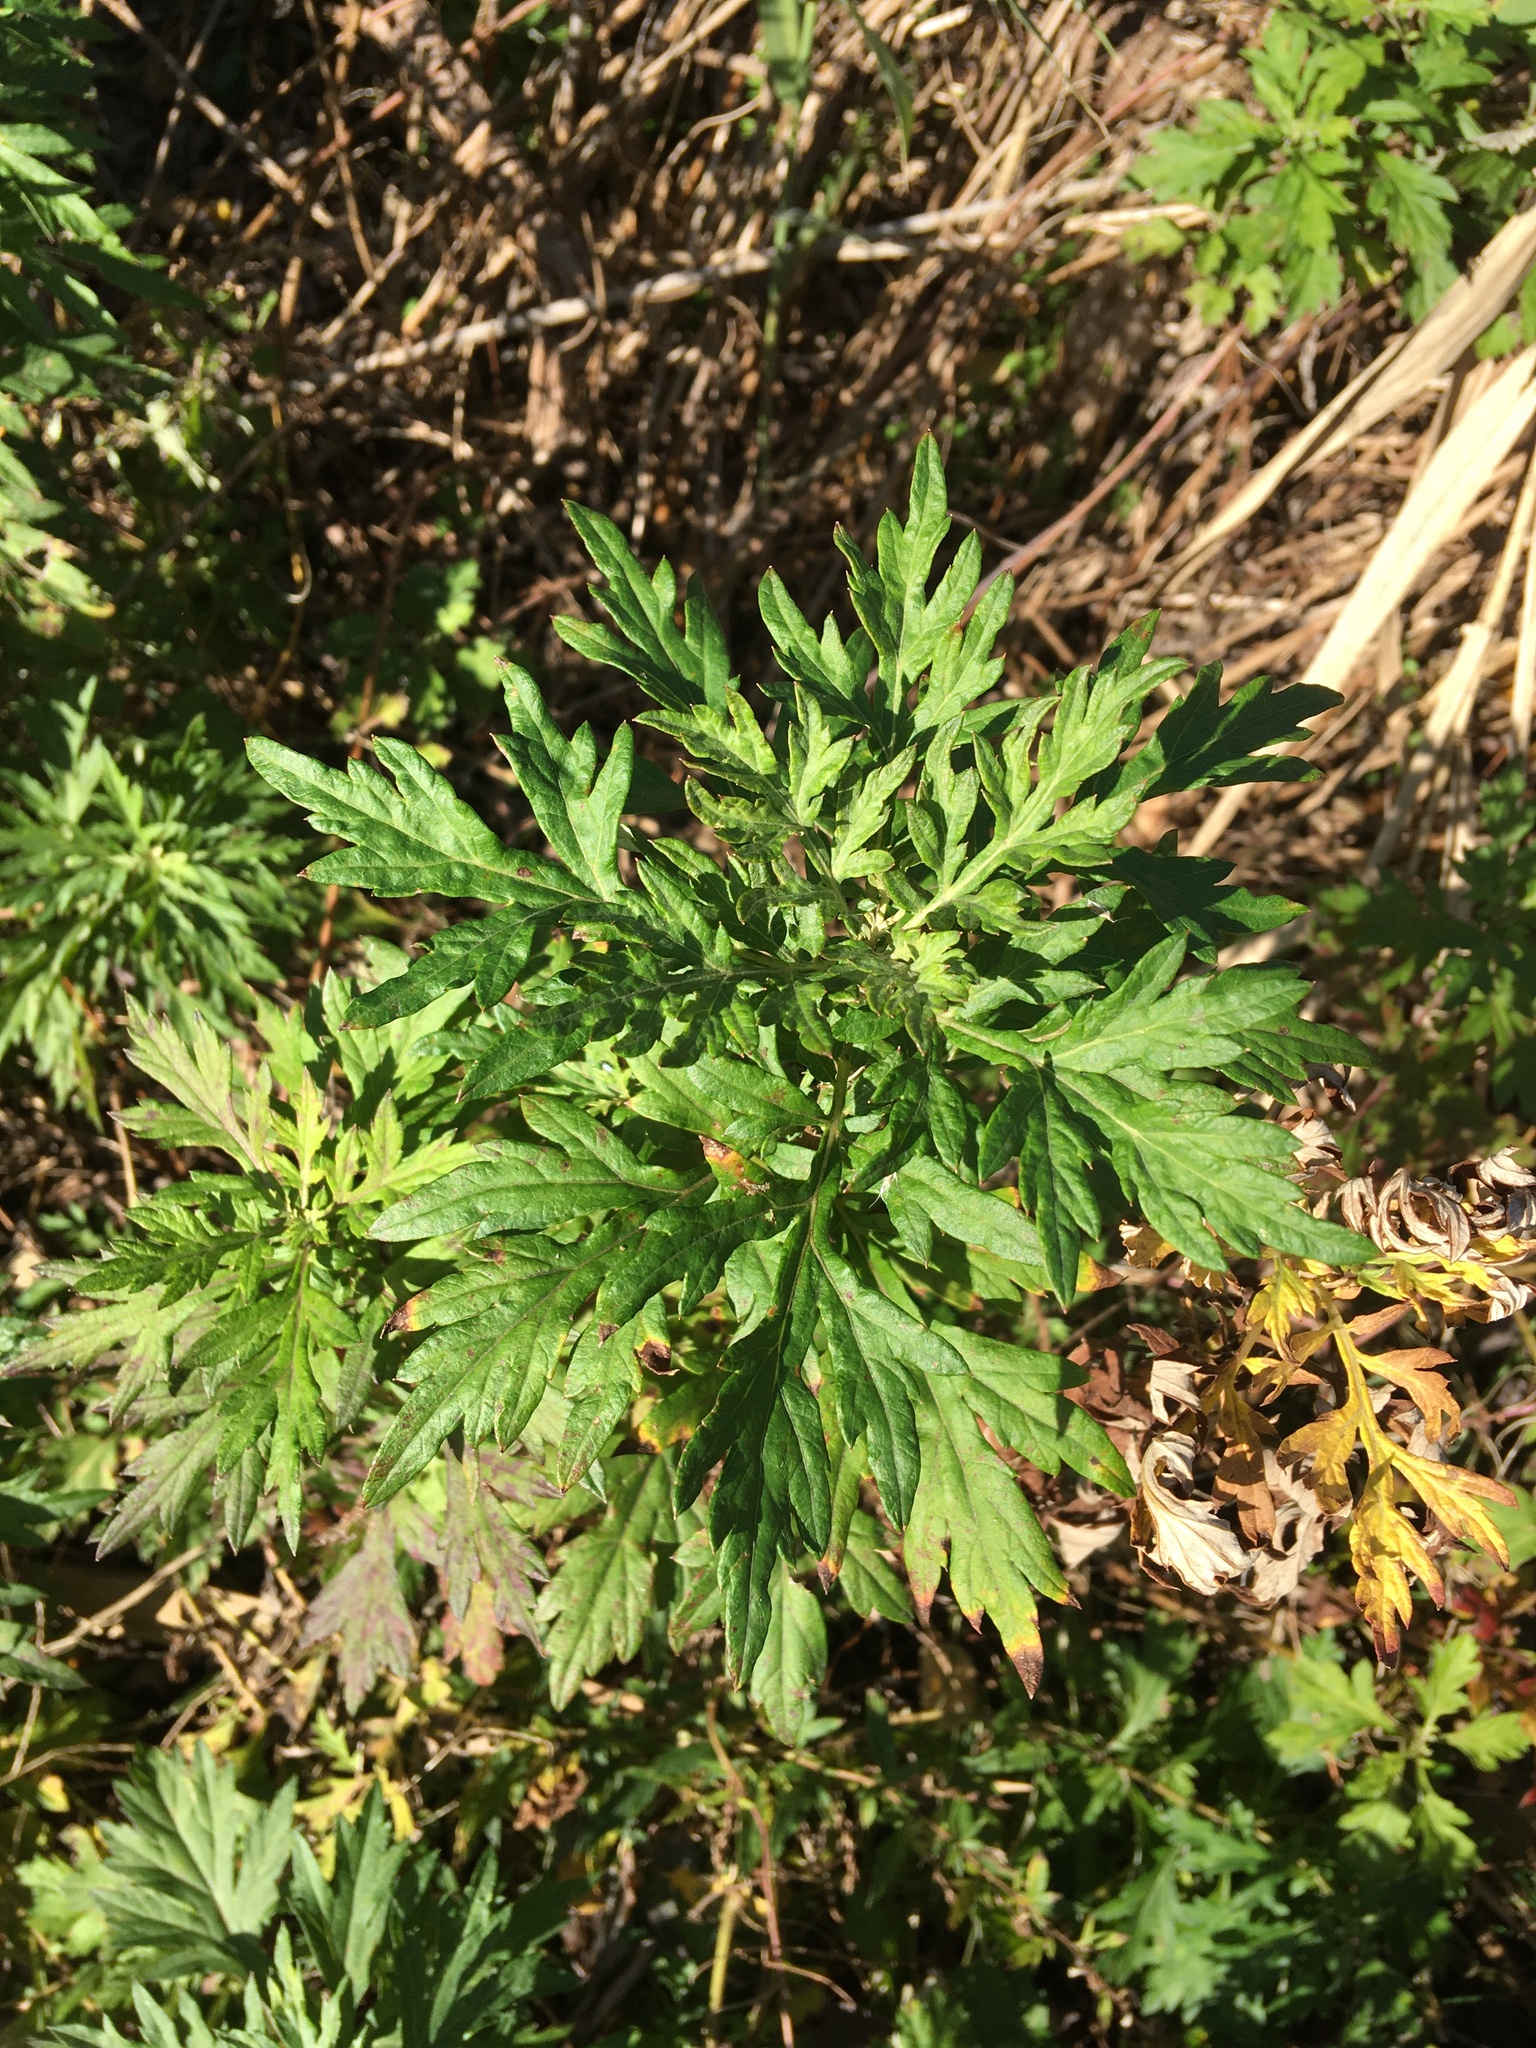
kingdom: Plantae
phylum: Tracheophyta
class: Magnoliopsida
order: Asterales
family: Asteraceae
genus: Artemisia
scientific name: Artemisia vulgaris
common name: Mugwort
